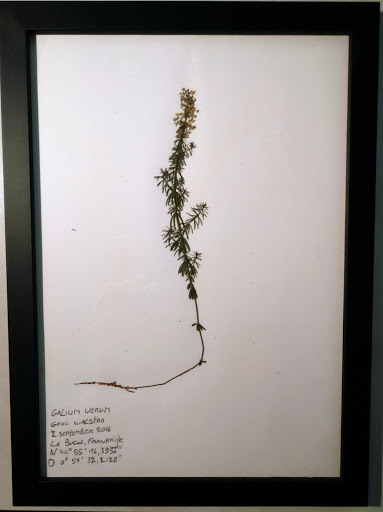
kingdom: Plantae
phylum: Tracheophyta
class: Magnoliopsida
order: Gentianales
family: Rubiaceae
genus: Galium
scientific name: Galium verum
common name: Lady's bedstraw
